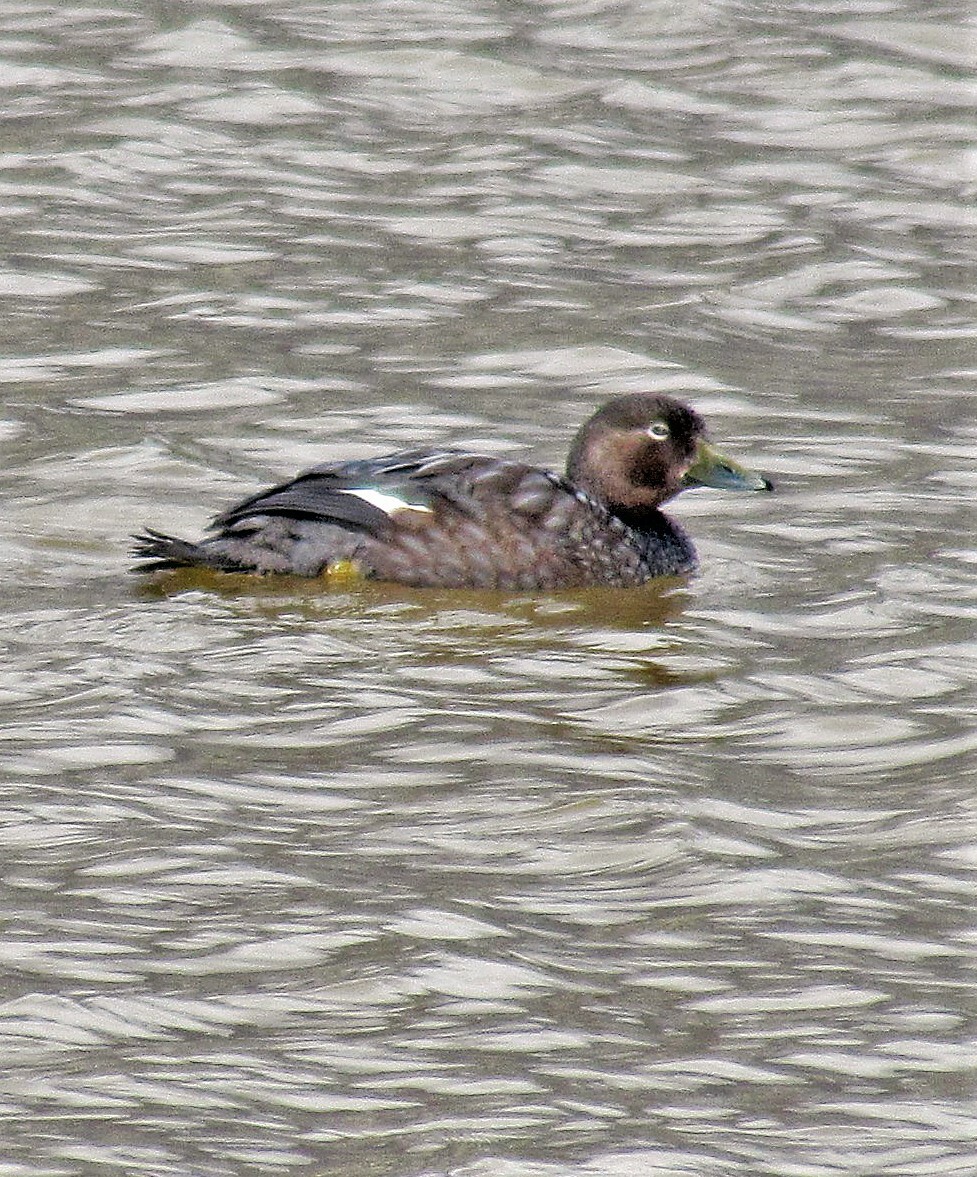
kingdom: Animalia
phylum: Chordata
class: Aves
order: Anseriformes
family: Anatidae
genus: Tachyeres
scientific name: Tachyeres patachonicus
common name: Flying steamer duck
